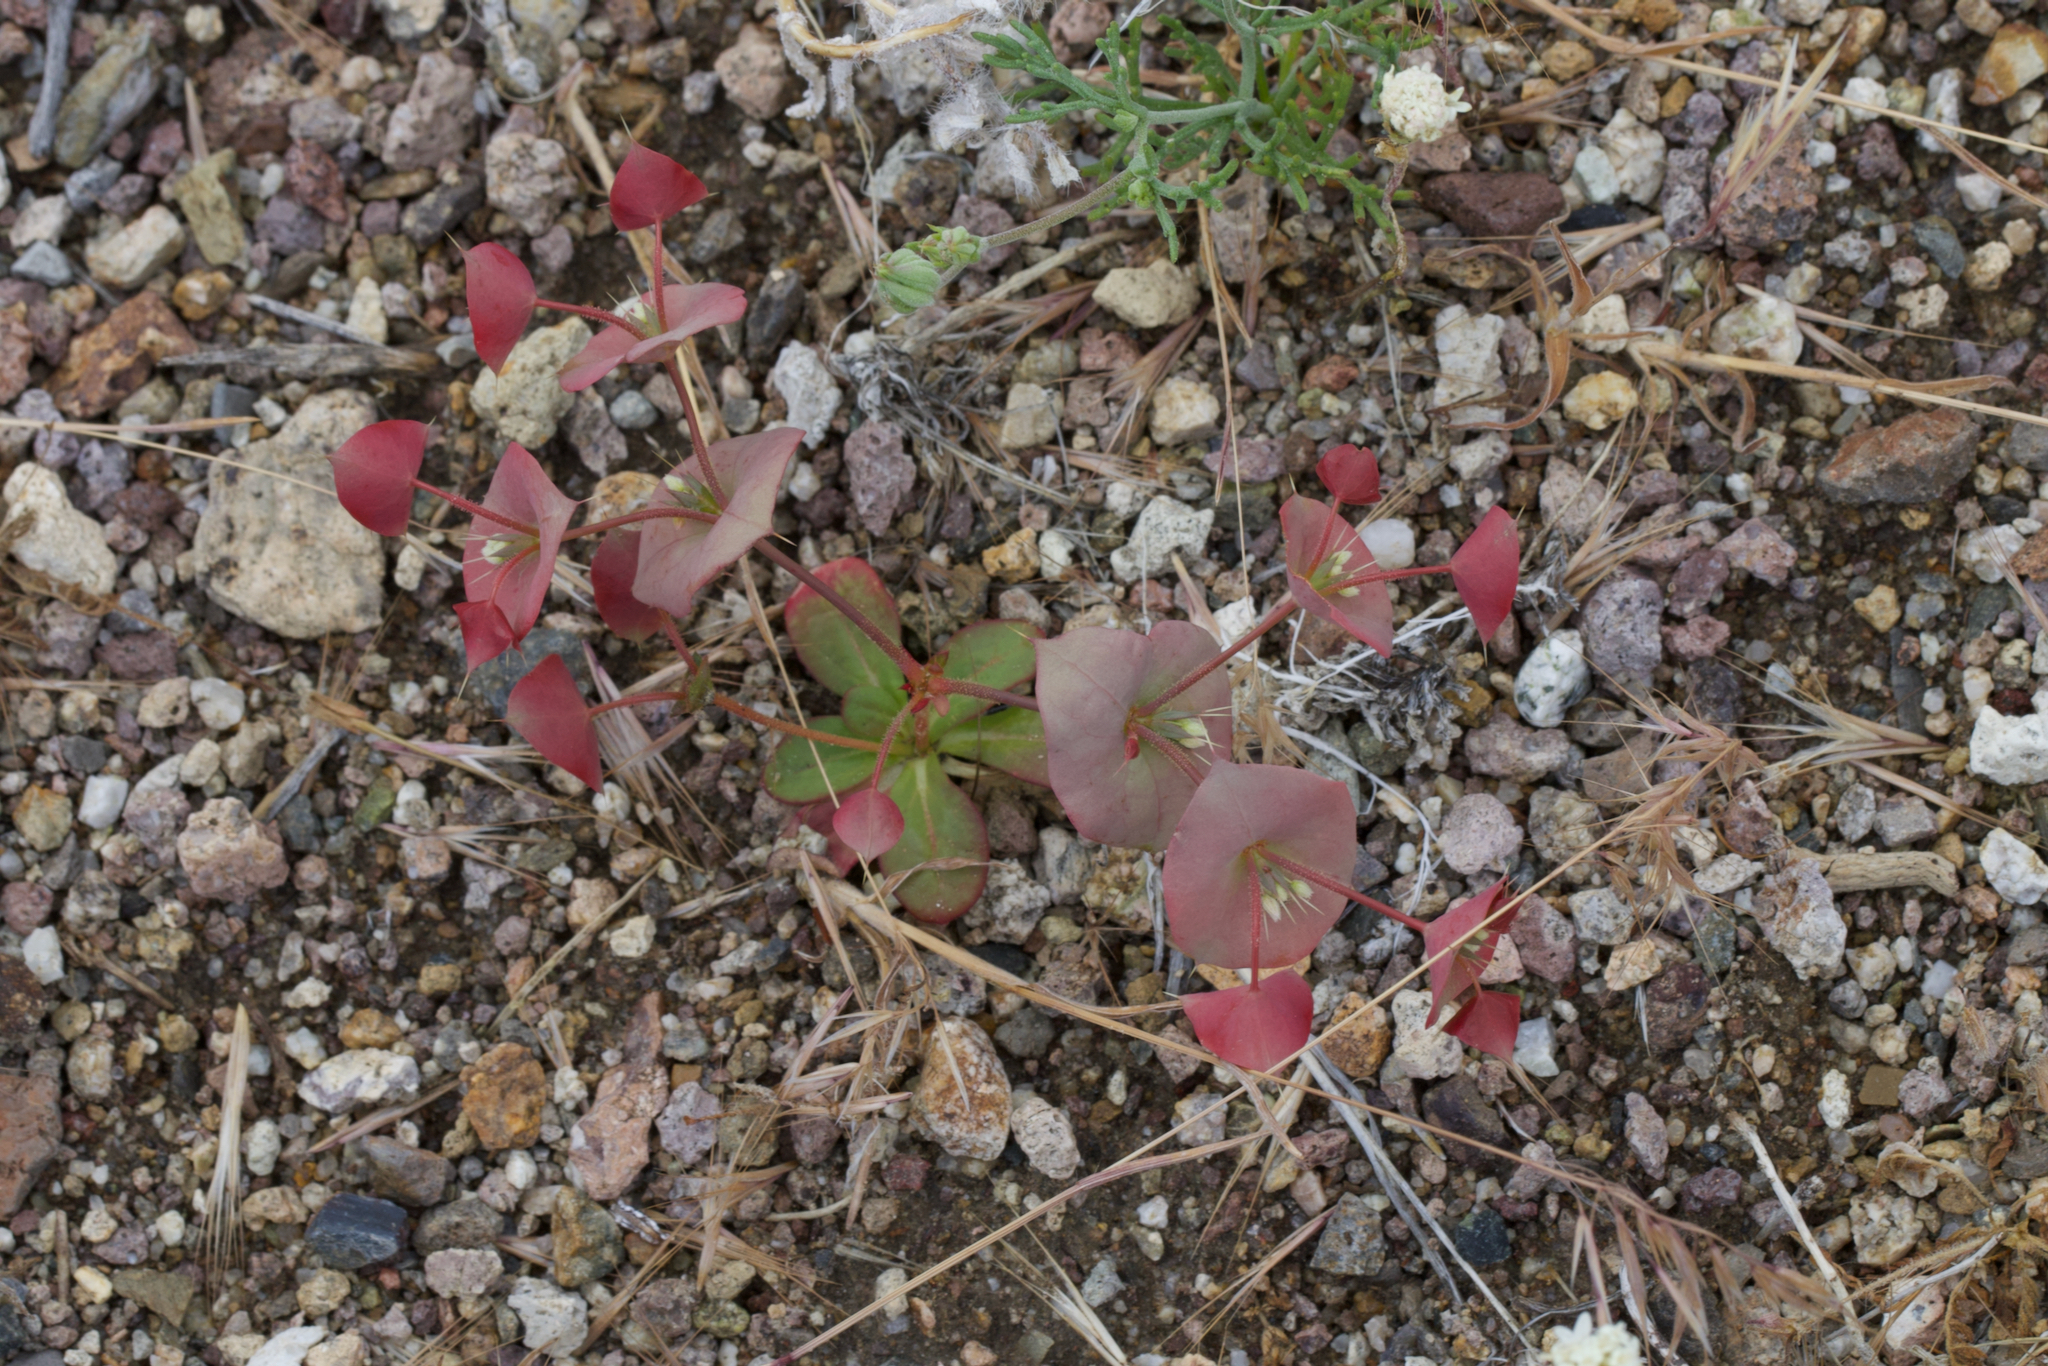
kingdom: Plantae
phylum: Tracheophyta
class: Magnoliopsida
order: Caryophyllales
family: Polygonaceae
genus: Oxytheca
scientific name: Oxytheca perfoliata
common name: Round-leaf puncturebract
